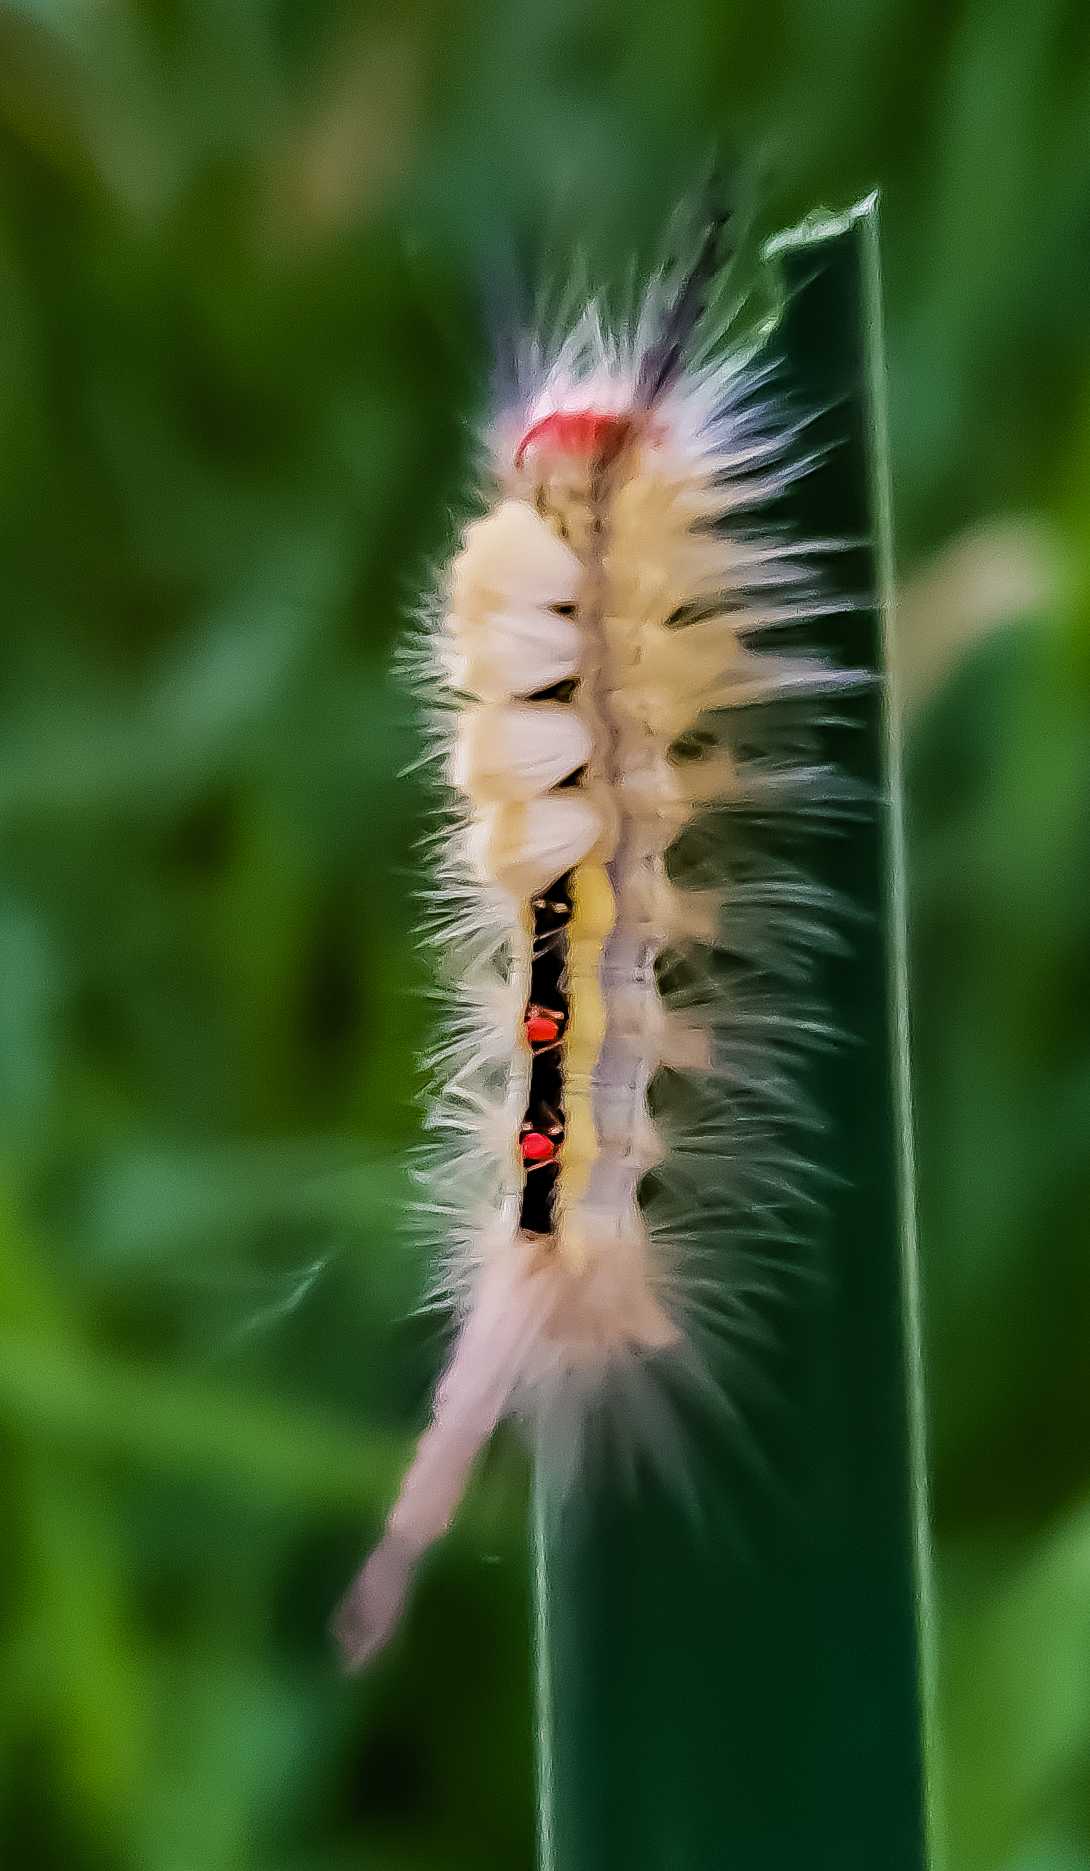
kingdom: Animalia
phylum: Arthropoda
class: Insecta
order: Lepidoptera
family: Erebidae
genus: Orgyia
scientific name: Orgyia leucostigma
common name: White-marked tussock moth
